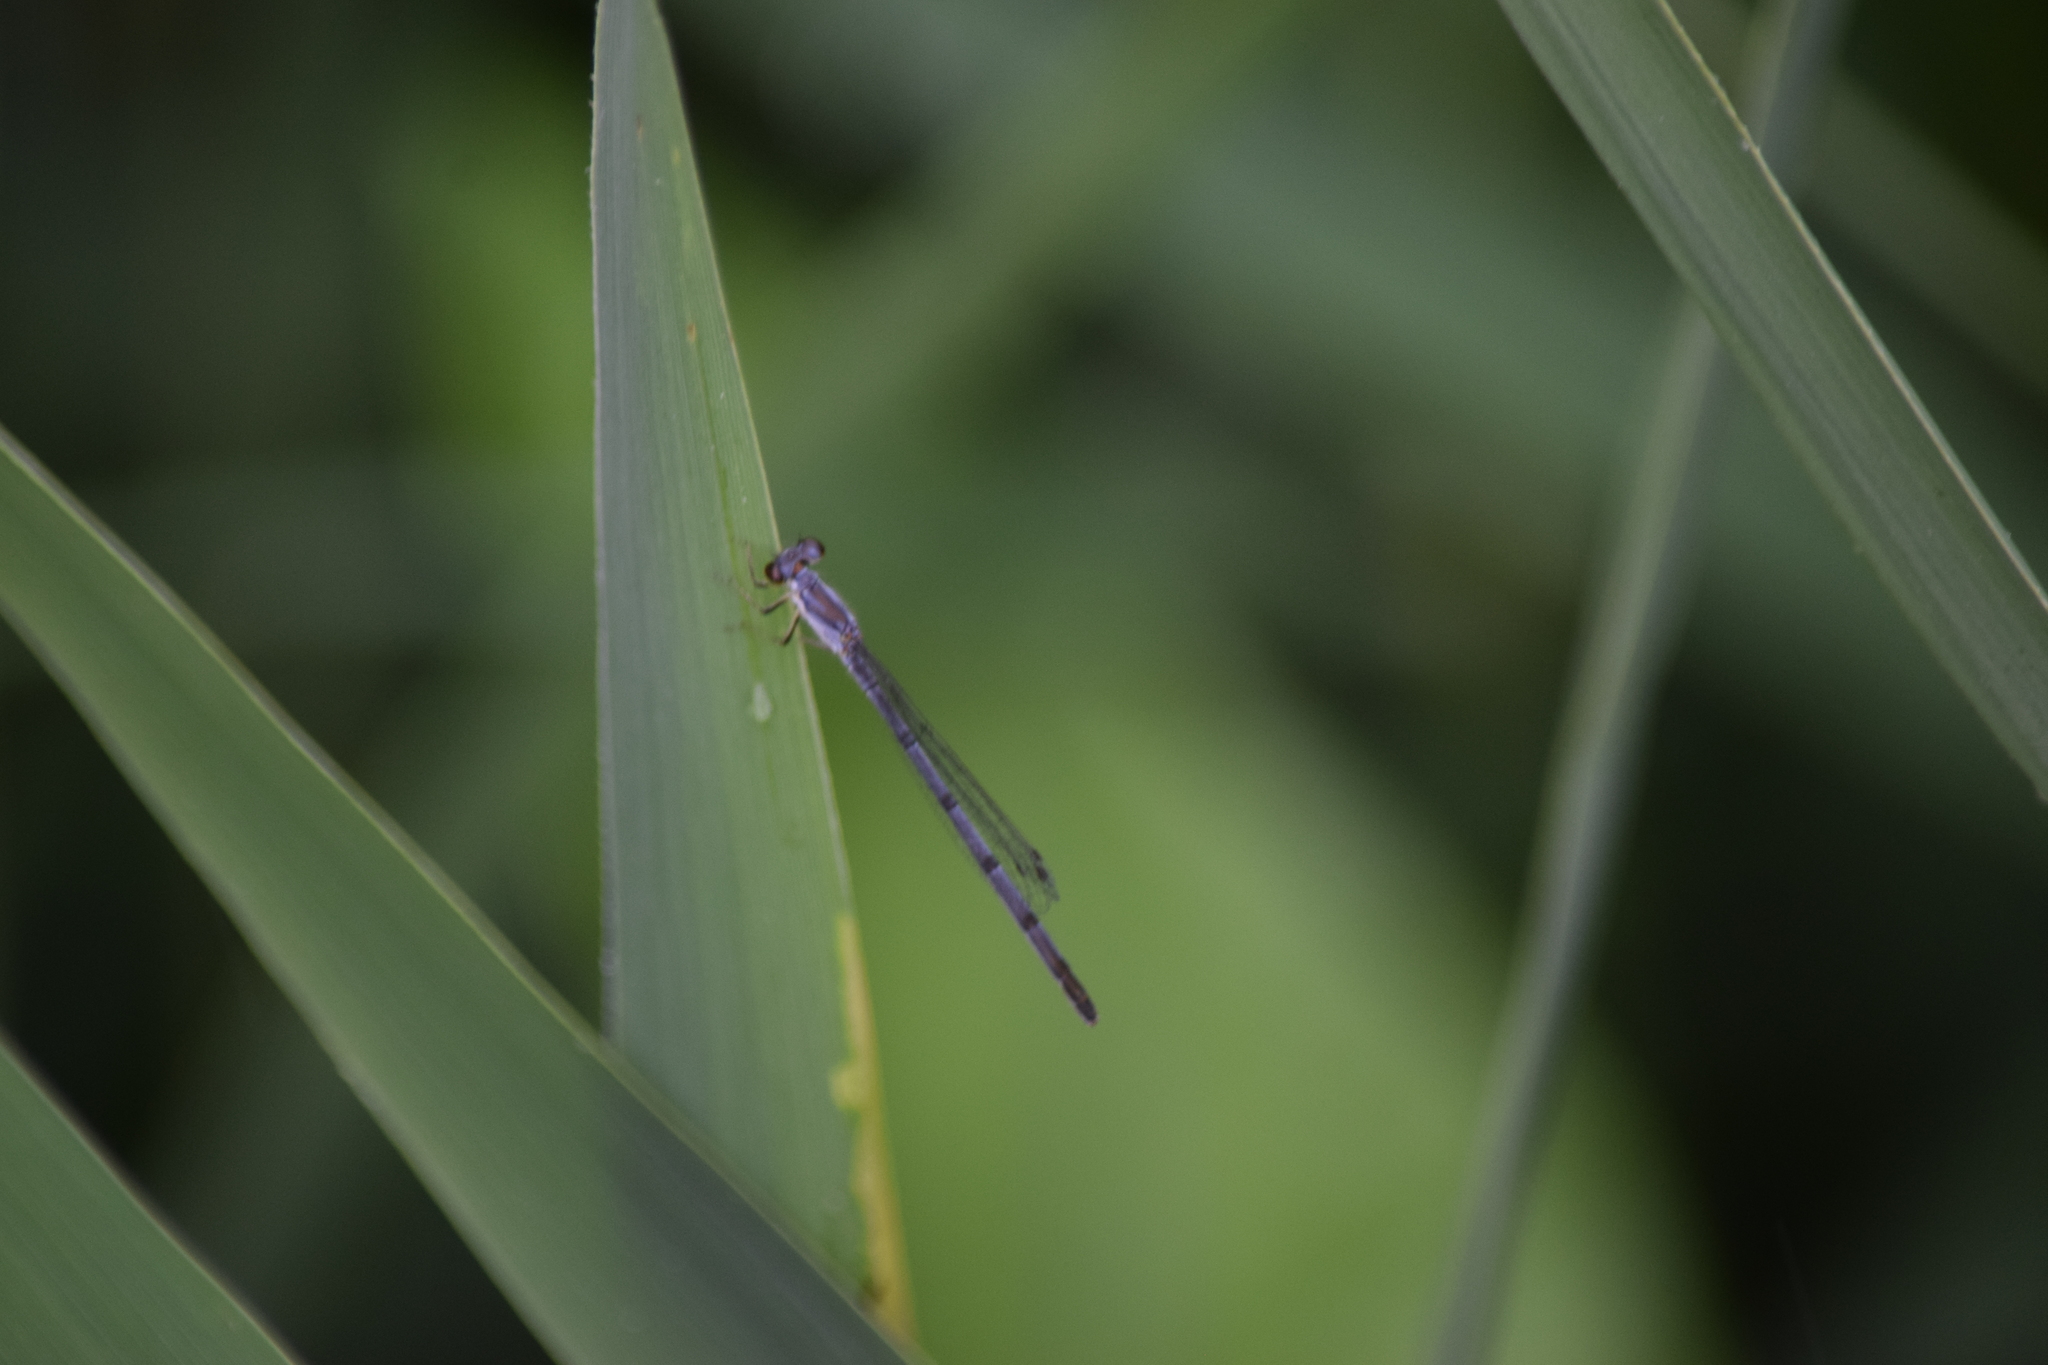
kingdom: Animalia
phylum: Arthropoda
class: Insecta
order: Odonata
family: Coenagrionidae
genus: Ischnura
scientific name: Ischnura posita
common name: Fragile forktail
